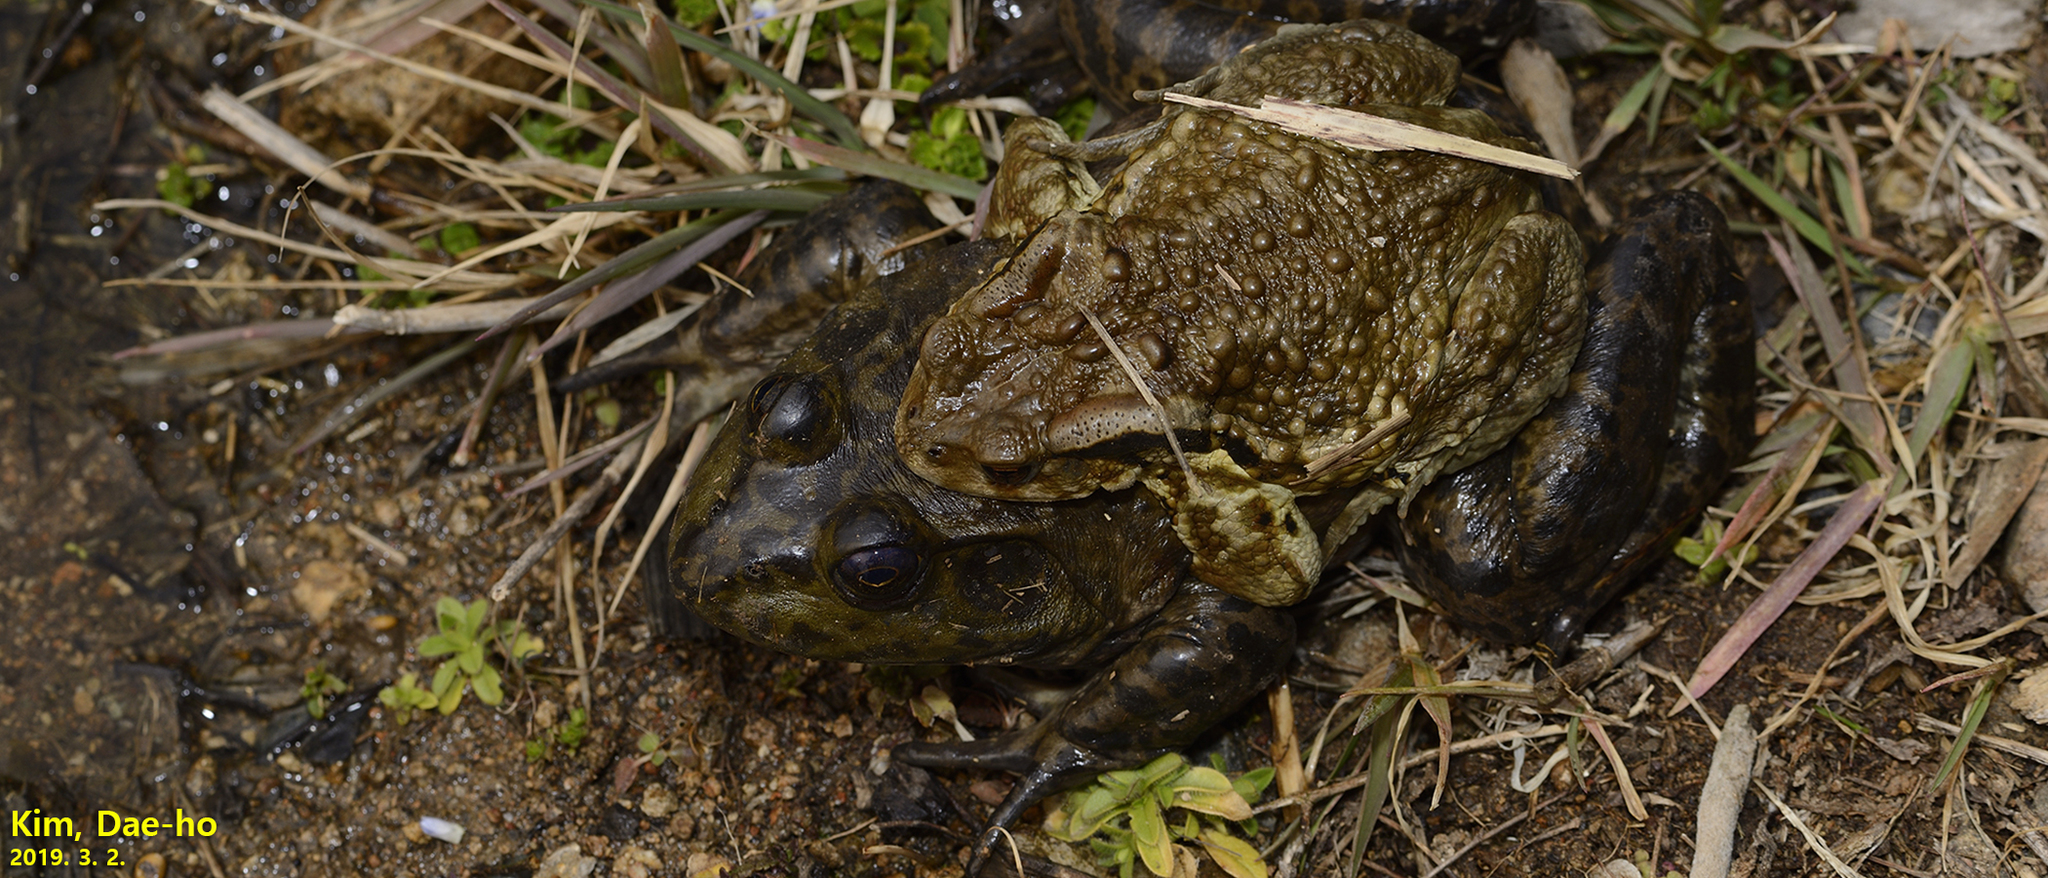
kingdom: Animalia
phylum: Chordata
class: Amphibia
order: Anura
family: Ranidae
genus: Lithobates
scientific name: Lithobates catesbeianus
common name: American bullfrog
